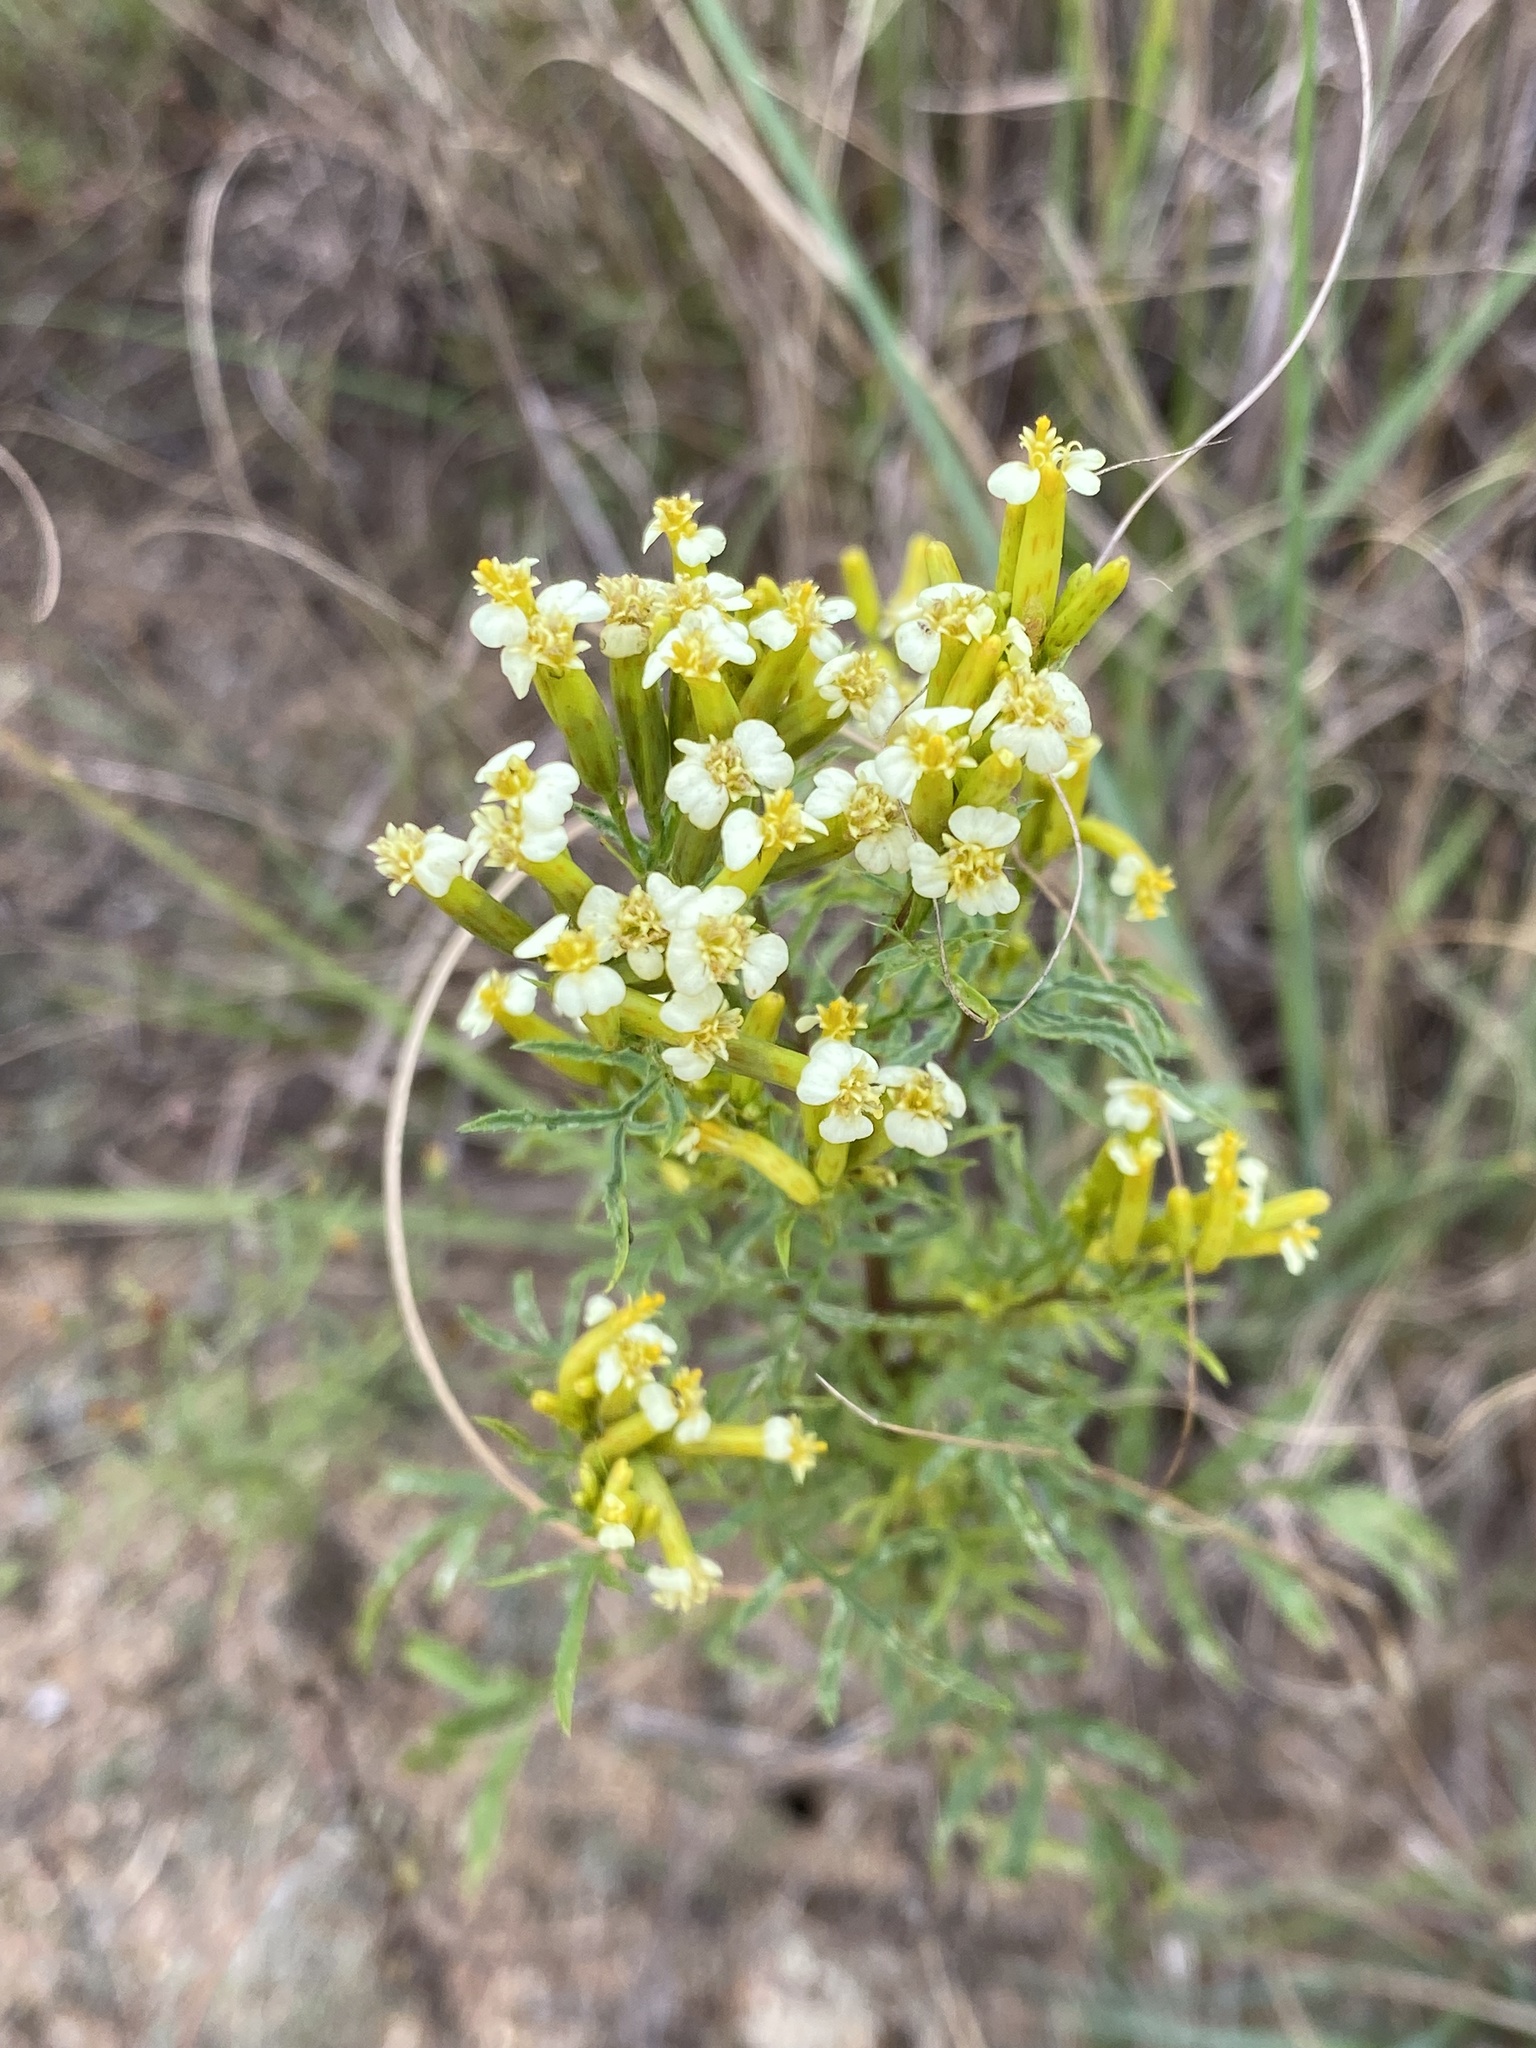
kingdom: Plantae
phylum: Tracheophyta
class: Magnoliopsida
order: Asterales
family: Asteraceae
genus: Tagetes
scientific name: Tagetes minuta
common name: Muster john henry
